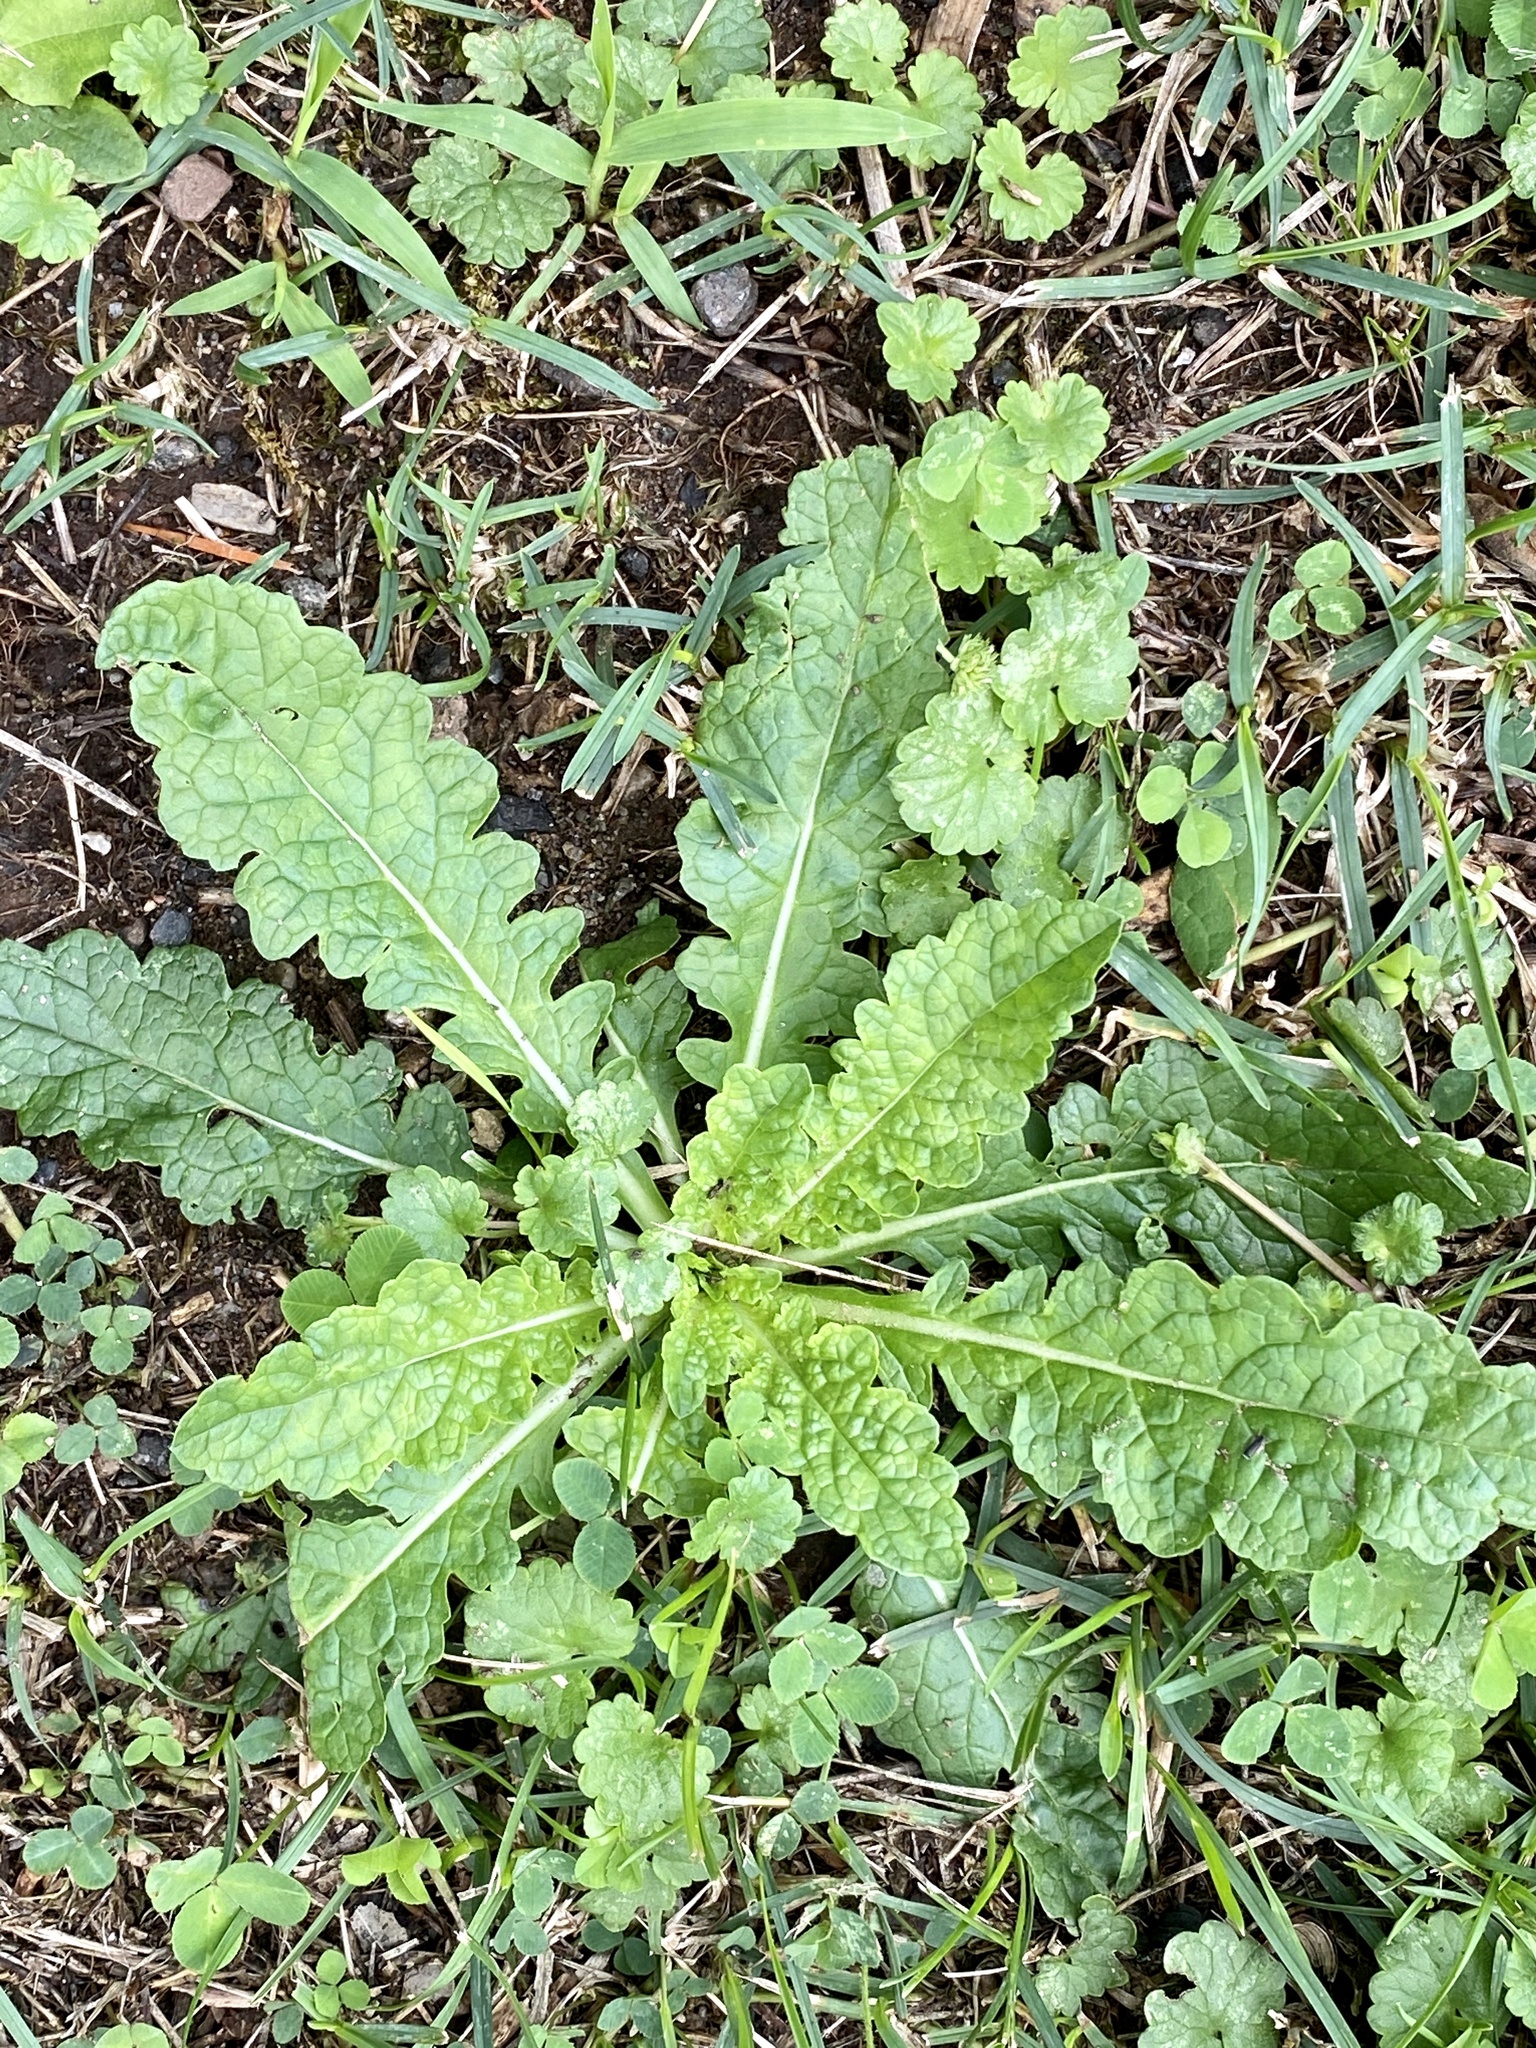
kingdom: Plantae
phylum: Tracheophyta
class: Magnoliopsida
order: Lamiales
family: Scrophulariaceae
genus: Verbascum
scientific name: Verbascum blattaria
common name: Moth mullein
